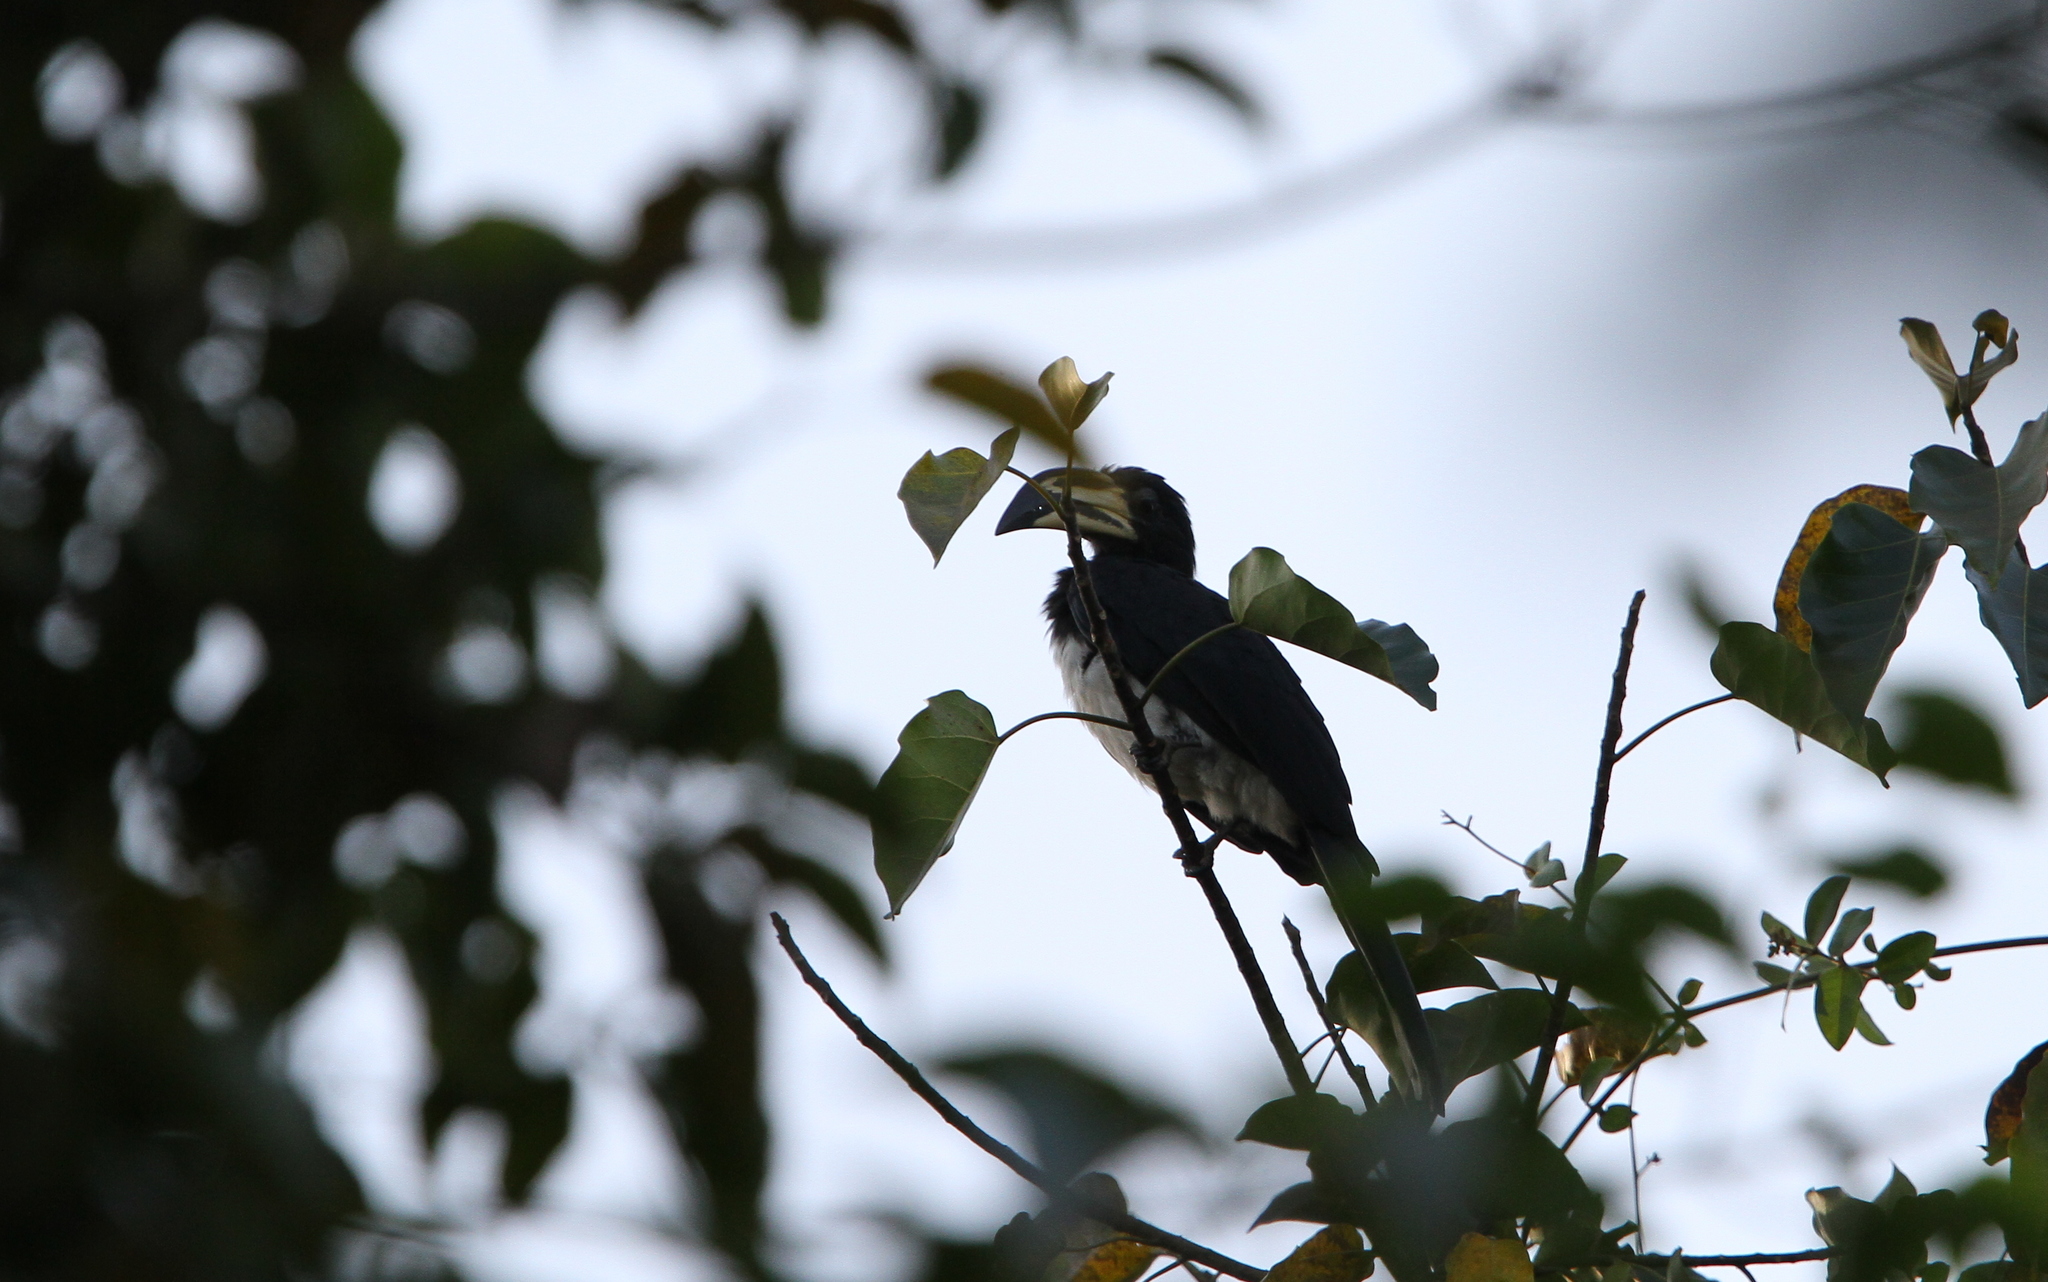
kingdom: Animalia
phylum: Chordata
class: Aves
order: Bucerotiformes
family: Bucerotidae
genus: Lophoceros
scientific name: Lophoceros fasciatus
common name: African pied hornbill
